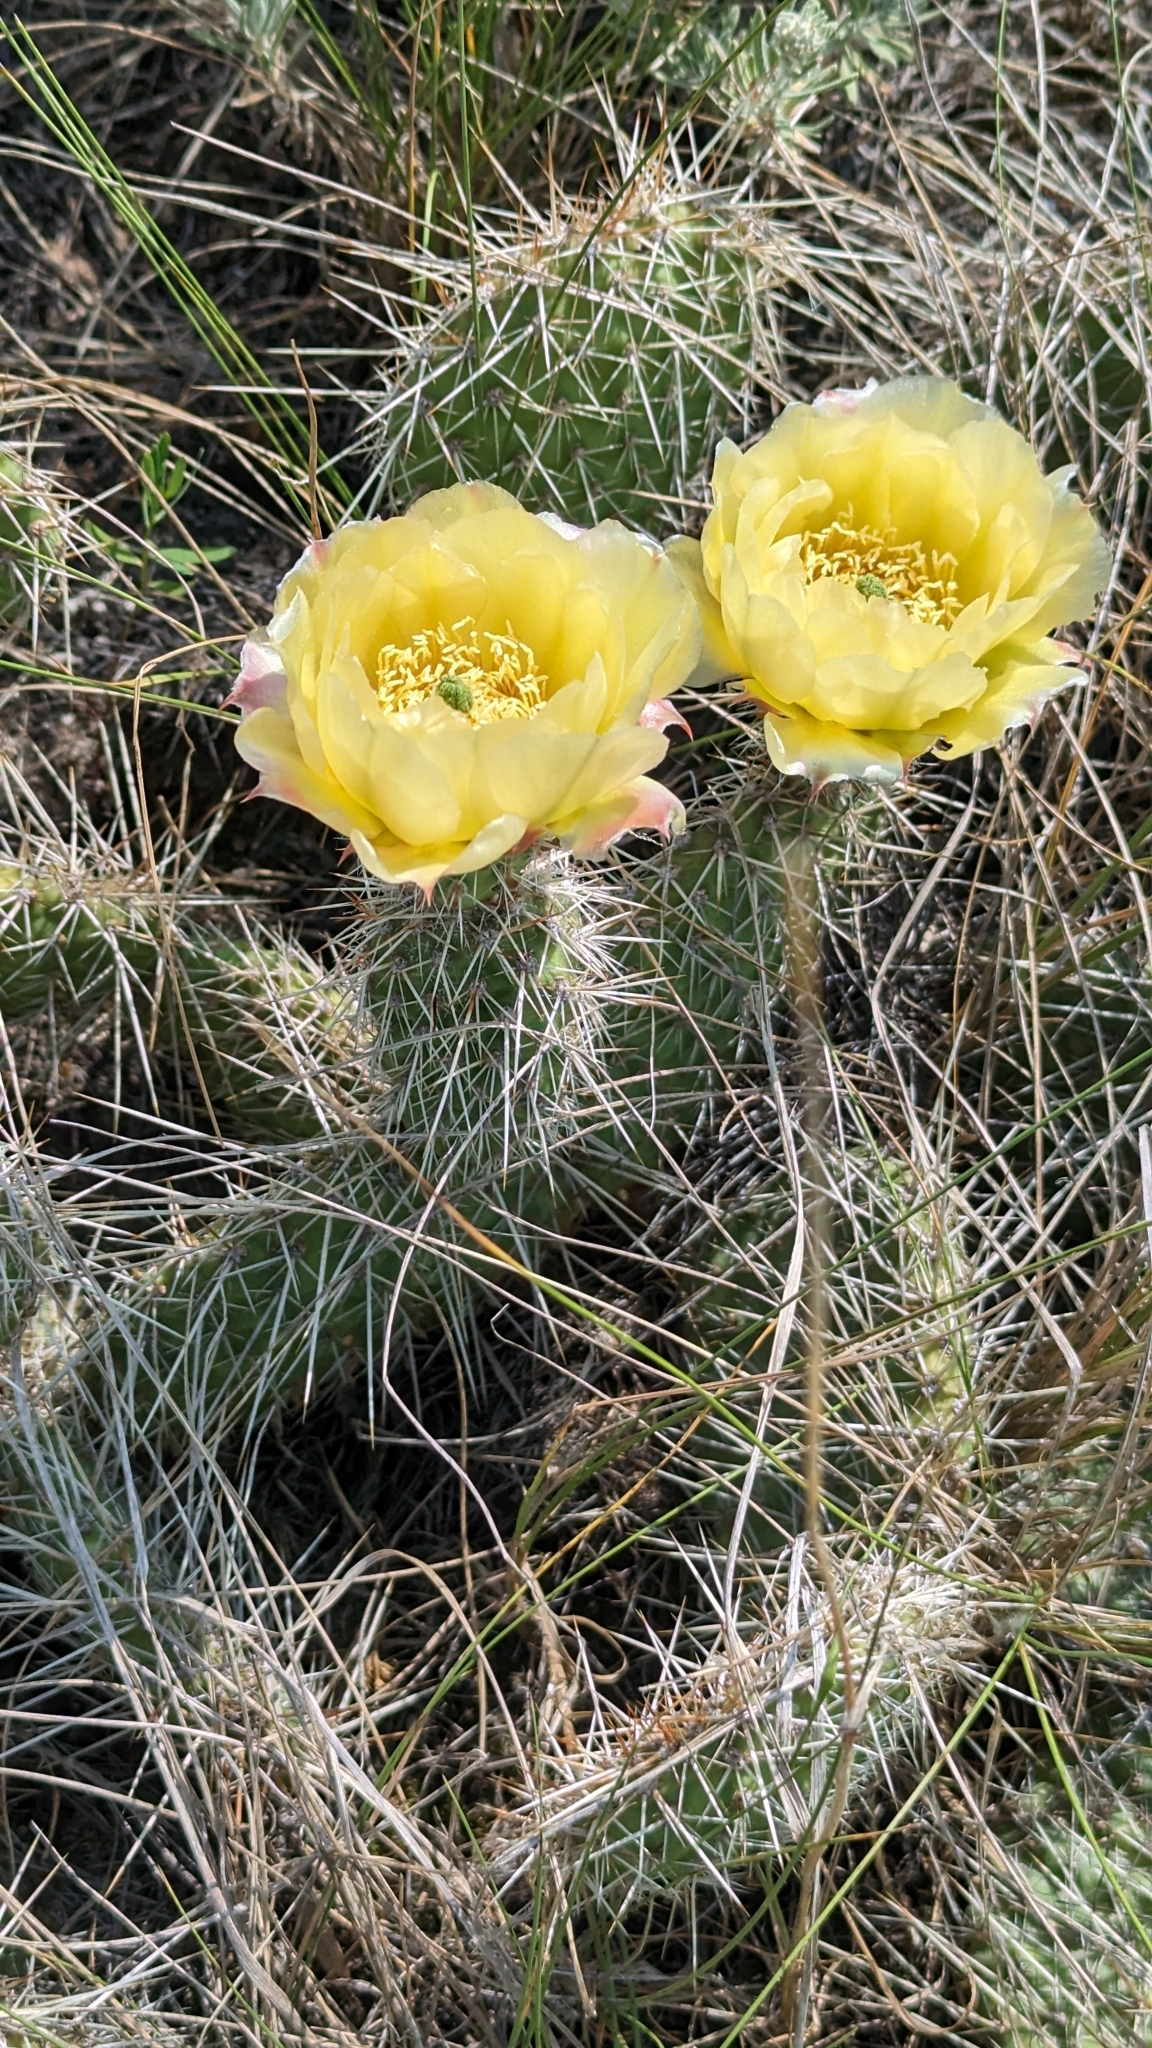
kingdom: Plantae
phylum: Tracheophyta
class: Magnoliopsida
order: Caryophyllales
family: Cactaceae
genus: Opuntia
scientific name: Opuntia polyacantha
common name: Plains prickly-pear
